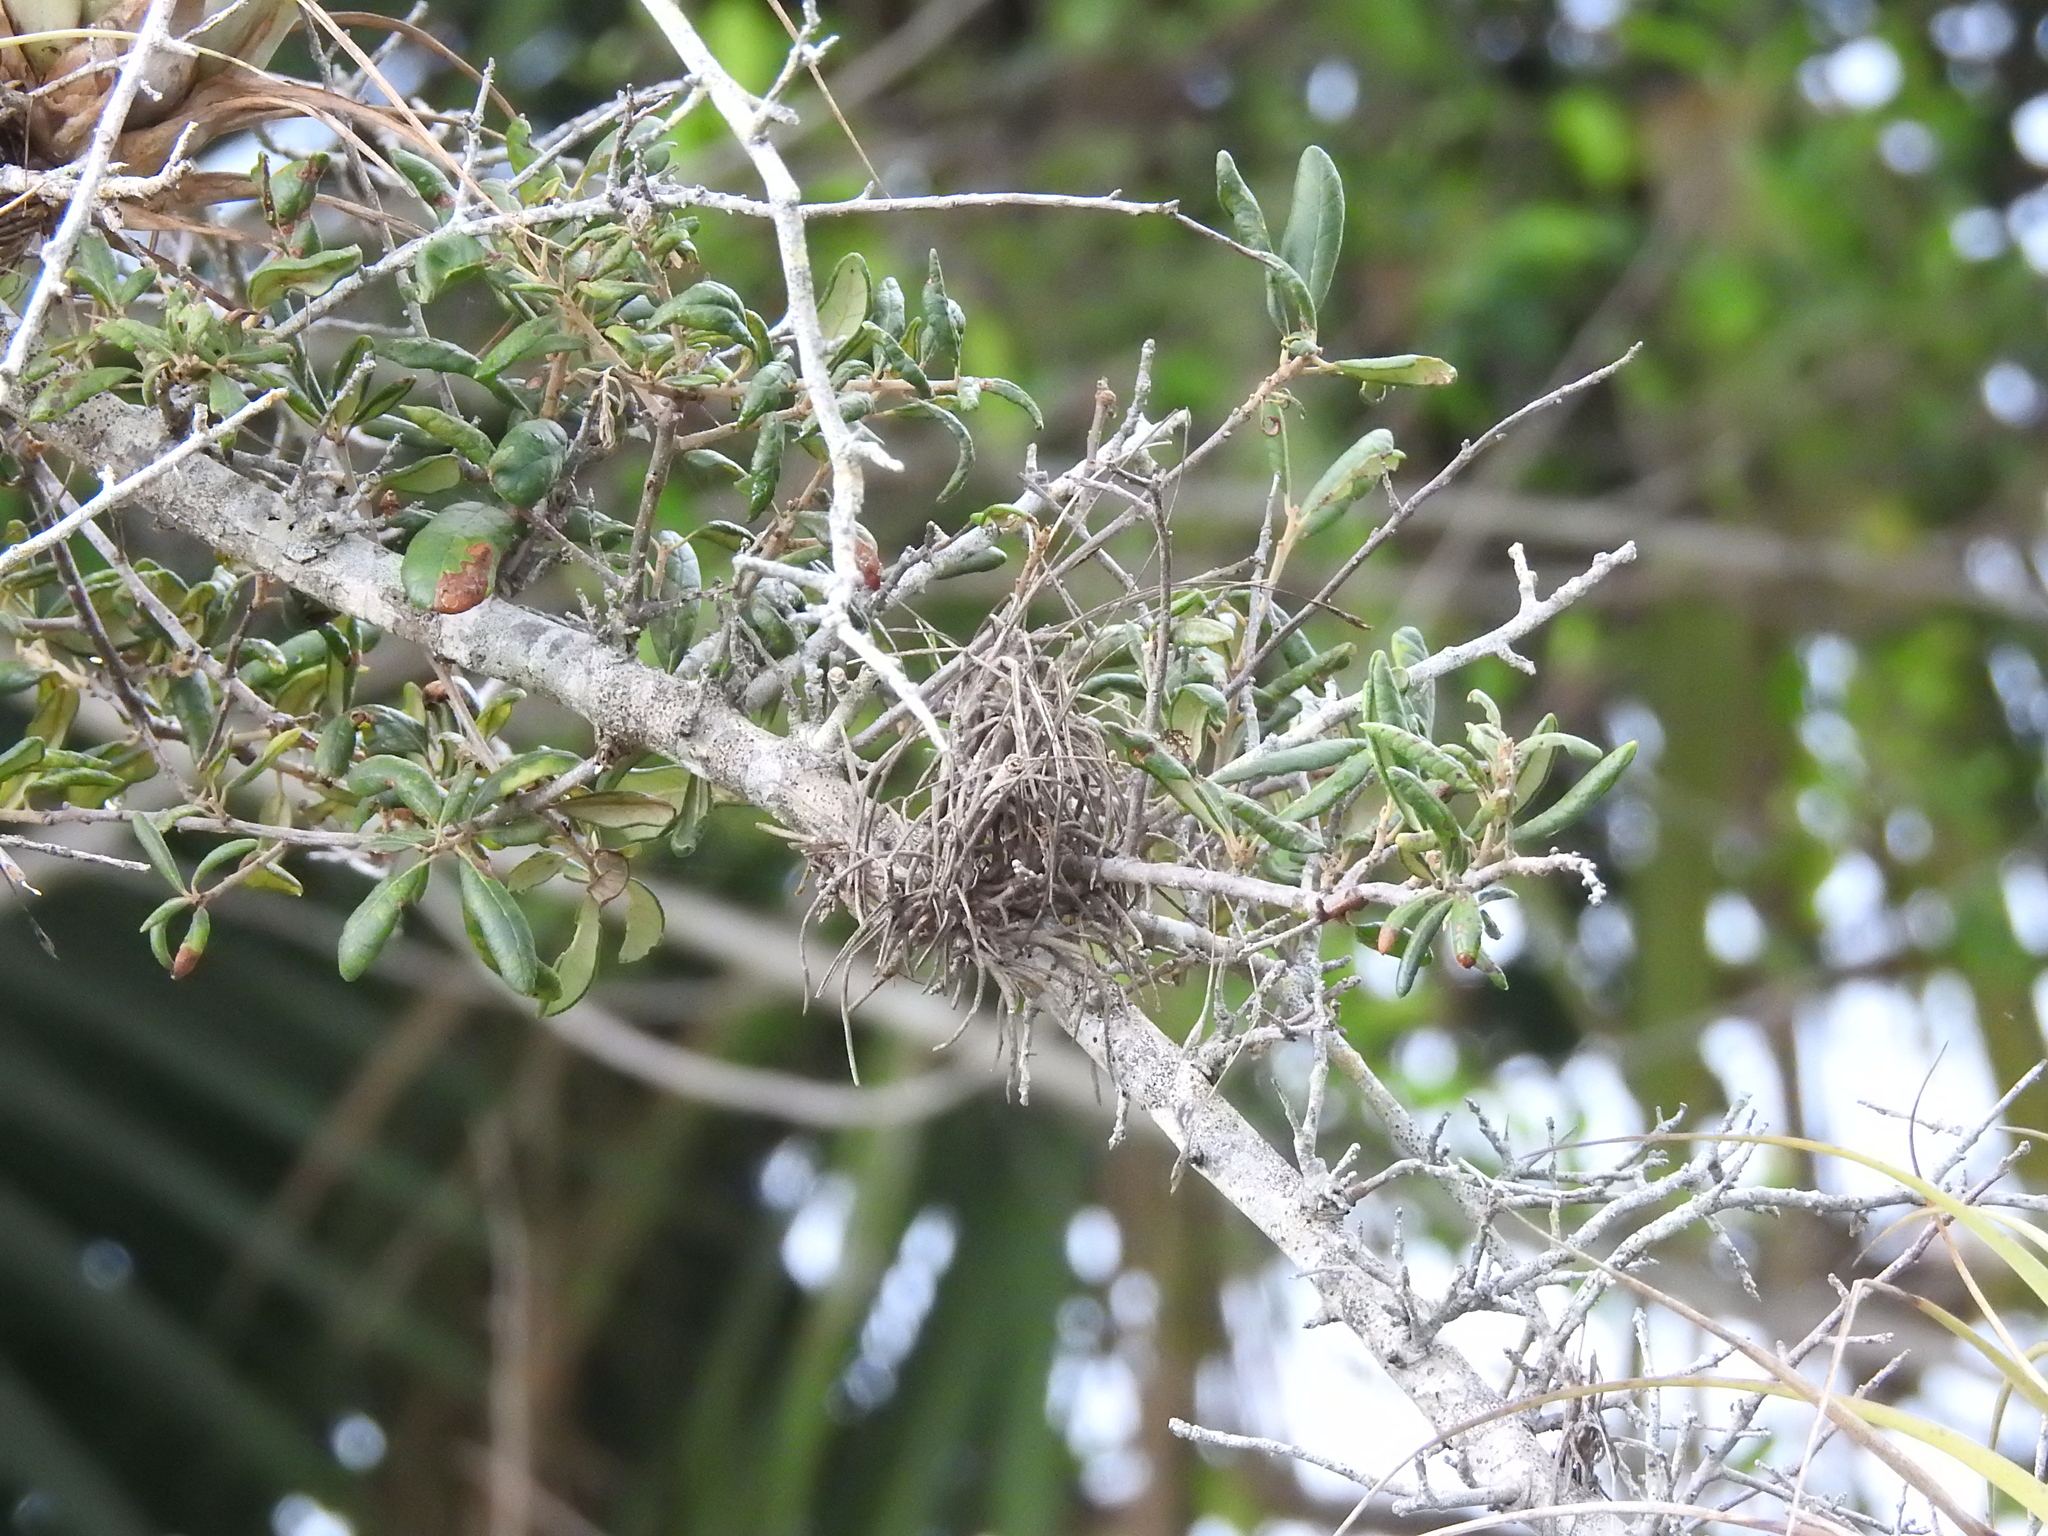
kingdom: Plantae
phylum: Tracheophyta
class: Liliopsida
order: Poales
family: Bromeliaceae
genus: Tillandsia
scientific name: Tillandsia recurvata
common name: Small ballmoss
